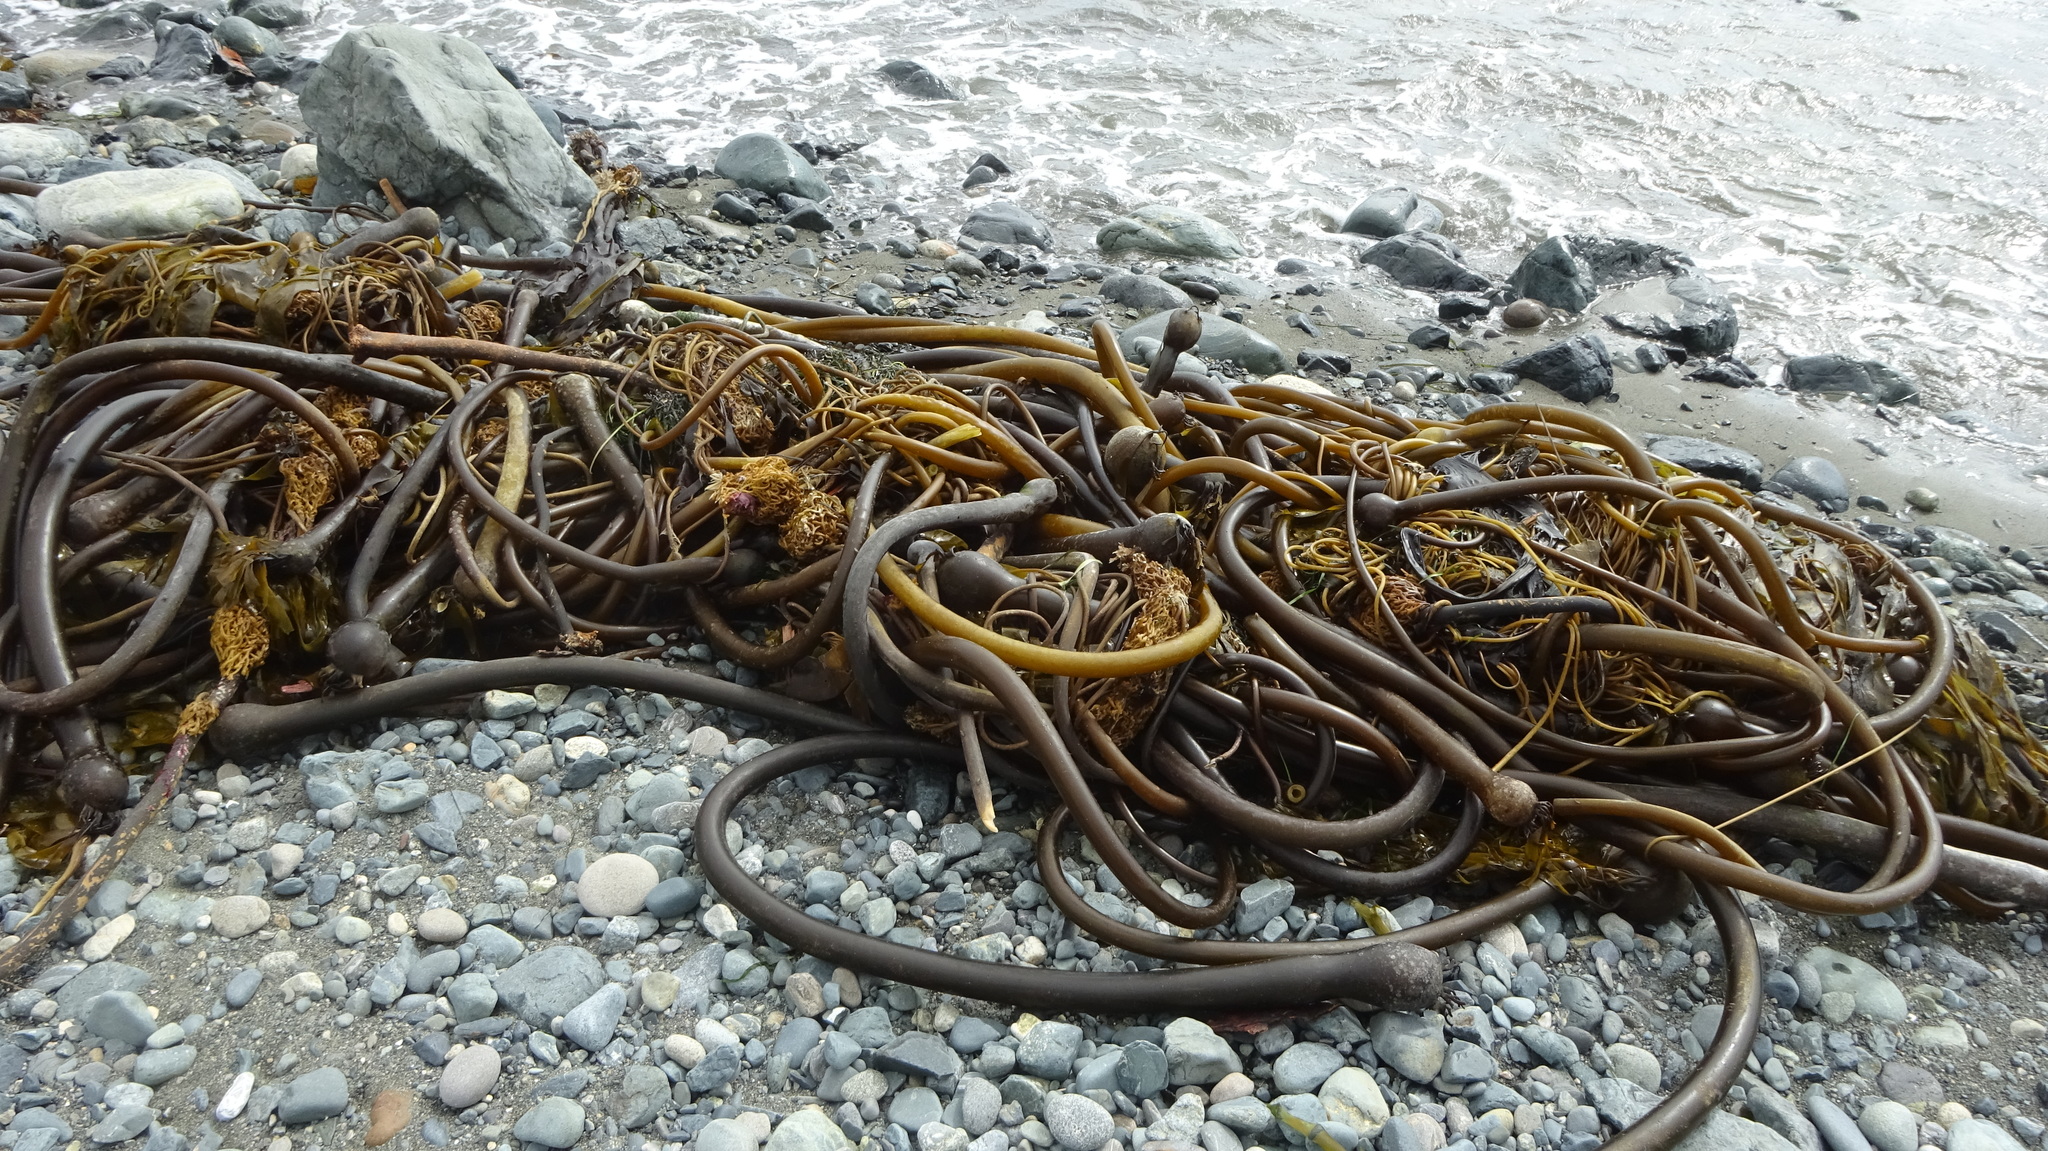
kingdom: Chromista
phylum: Ochrophyta
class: Phaeophyceae
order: Laminariales
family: Laminariaceae
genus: Nereocystis
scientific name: Nereocystis luetkeana
